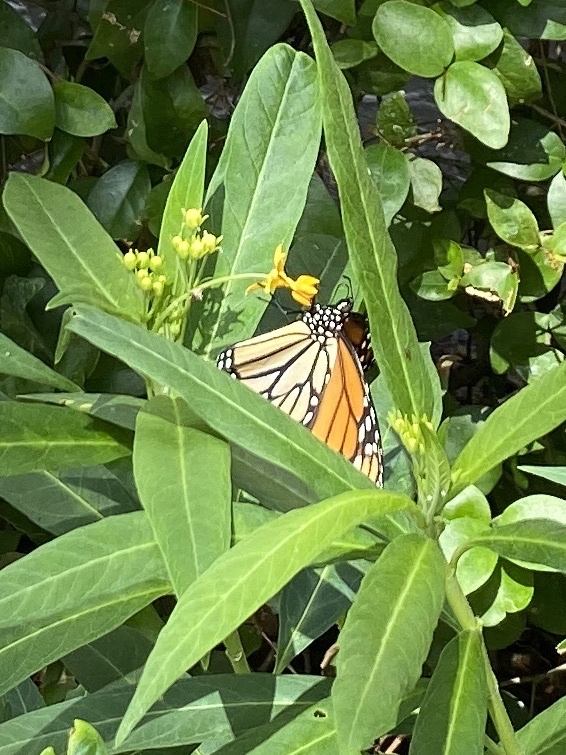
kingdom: Animalia
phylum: Arthropoda
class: Insecta
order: Lepidoptera
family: Nymphalidae
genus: Danaus
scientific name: Danaus plexippus
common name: Monarch
